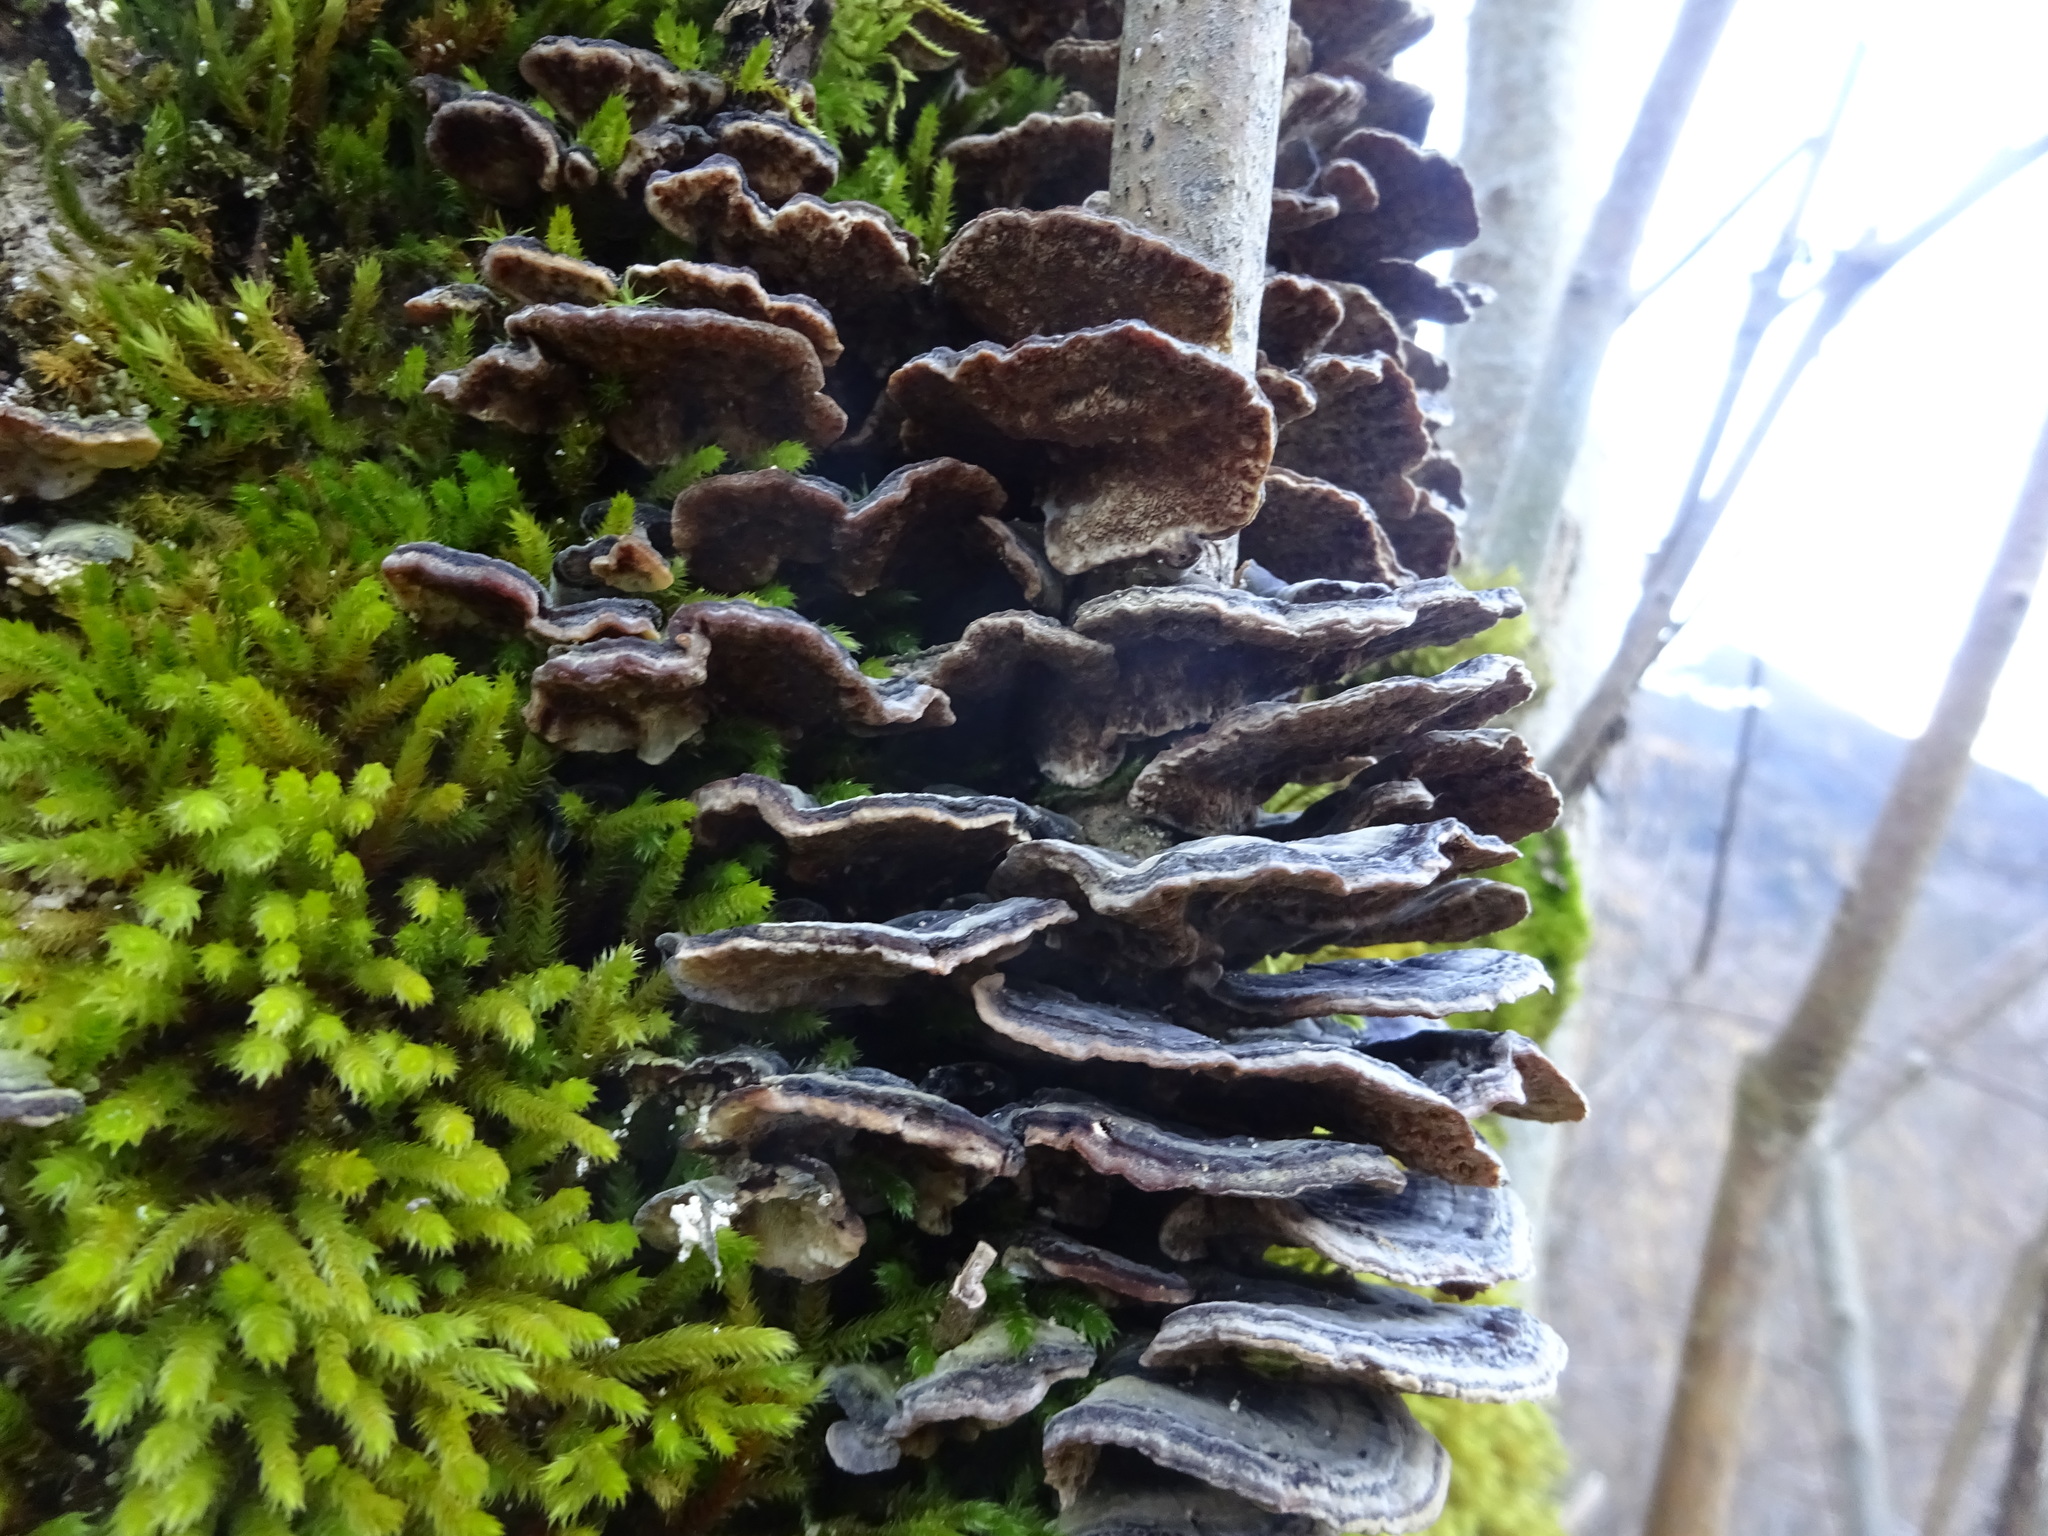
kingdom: Fungi
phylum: Basidiomycota
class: Agaricomycetes
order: Polyporales
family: Polyporaceae
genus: Trametes
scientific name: Trametes versicolor
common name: Turkeytail
